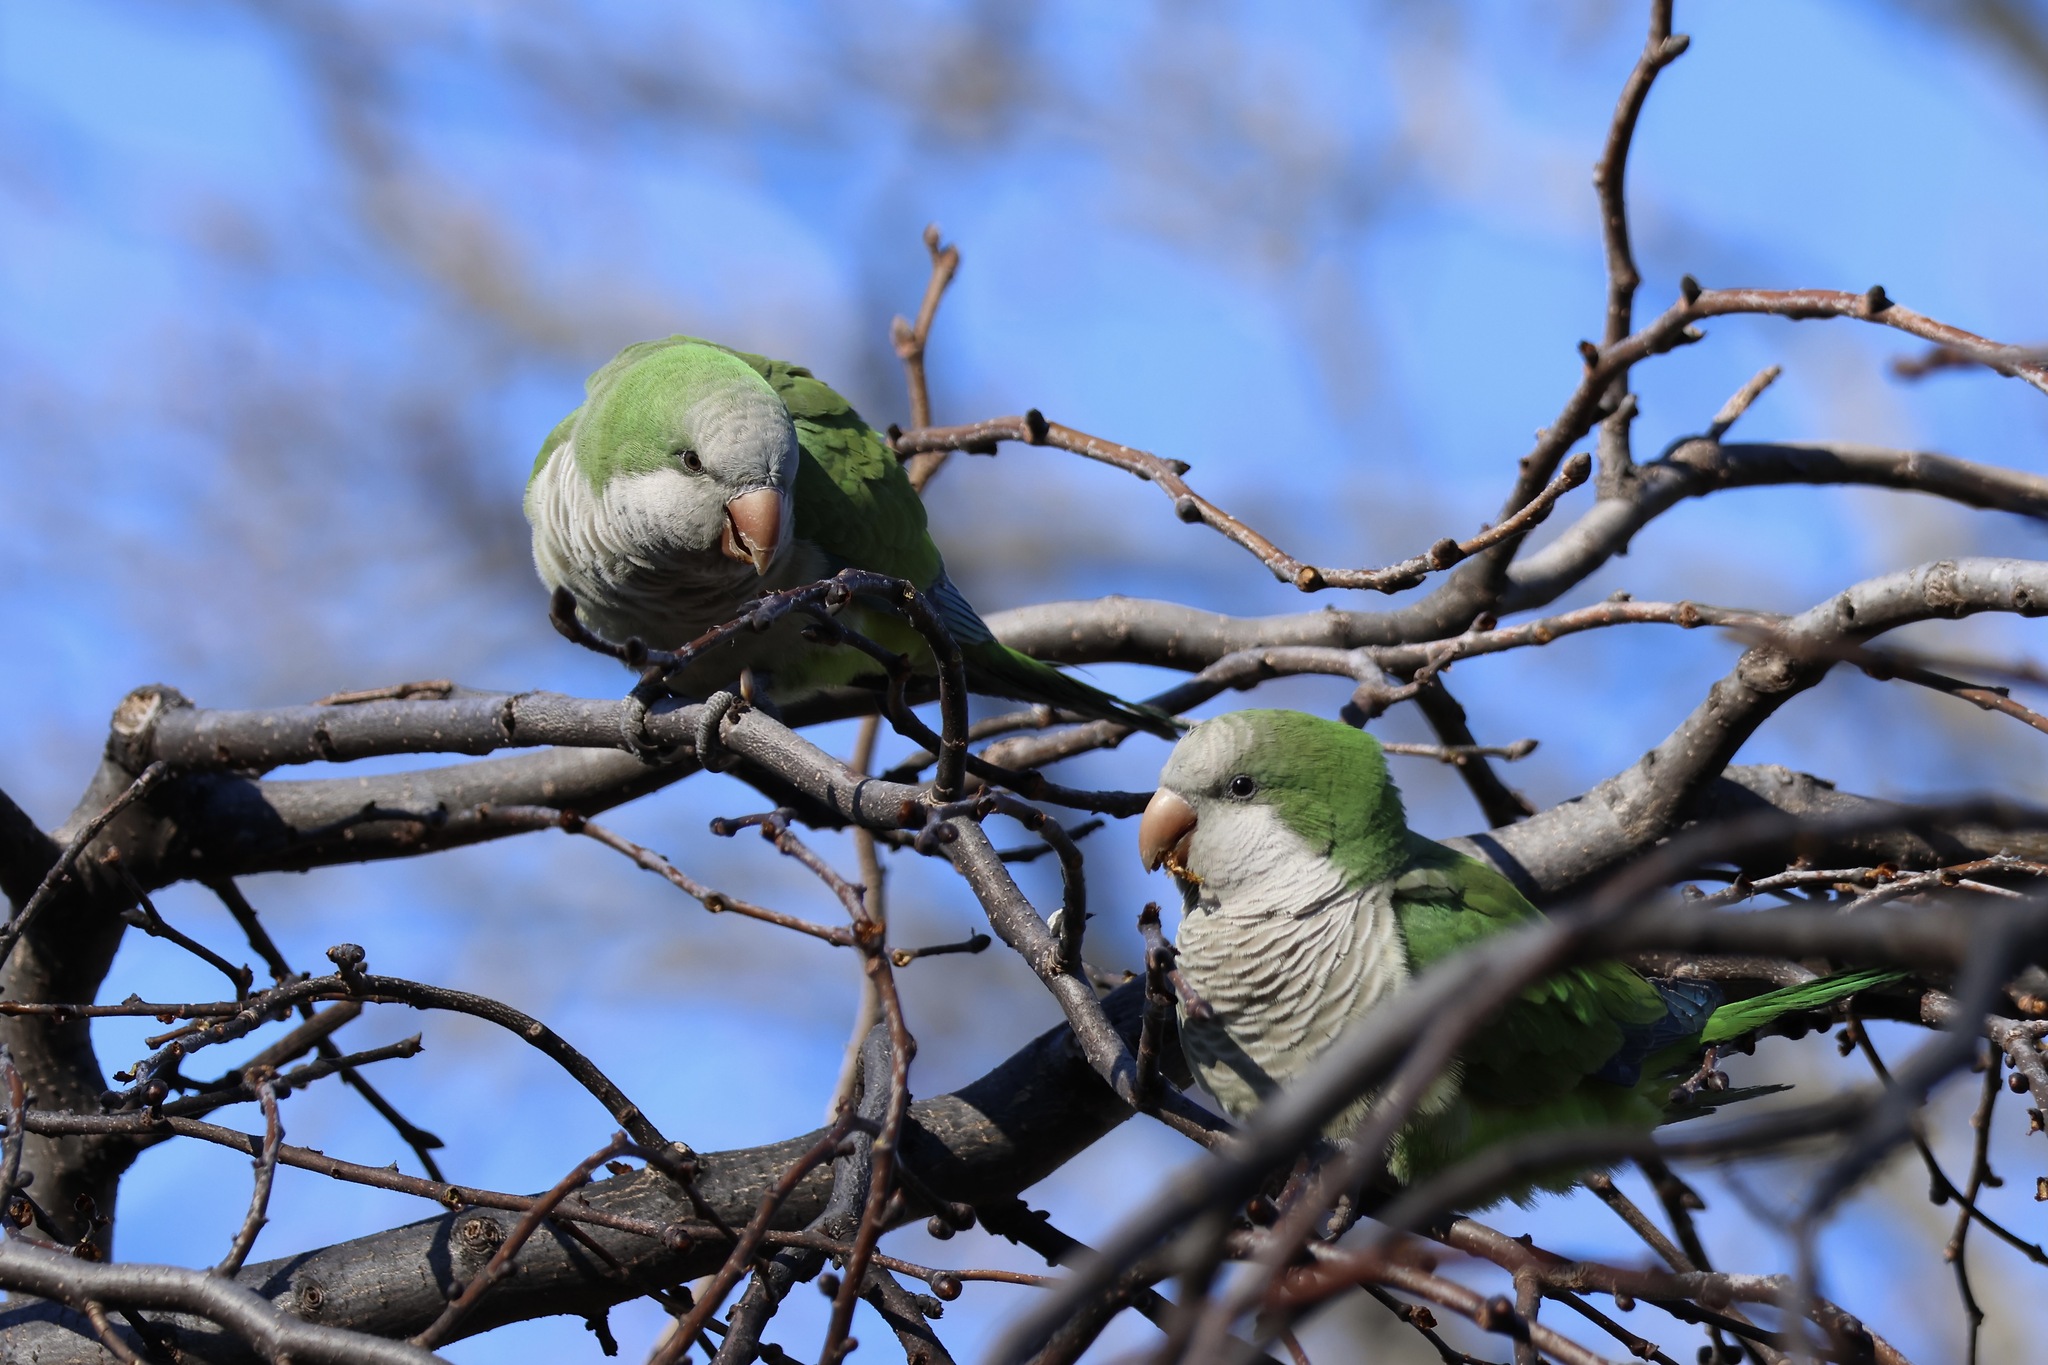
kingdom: Animalia
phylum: Chordata
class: Aves
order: Psittaciformes
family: Psittacidae
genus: Myiopsitta
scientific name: Myiopsitta monachus
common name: Monk parakeet
